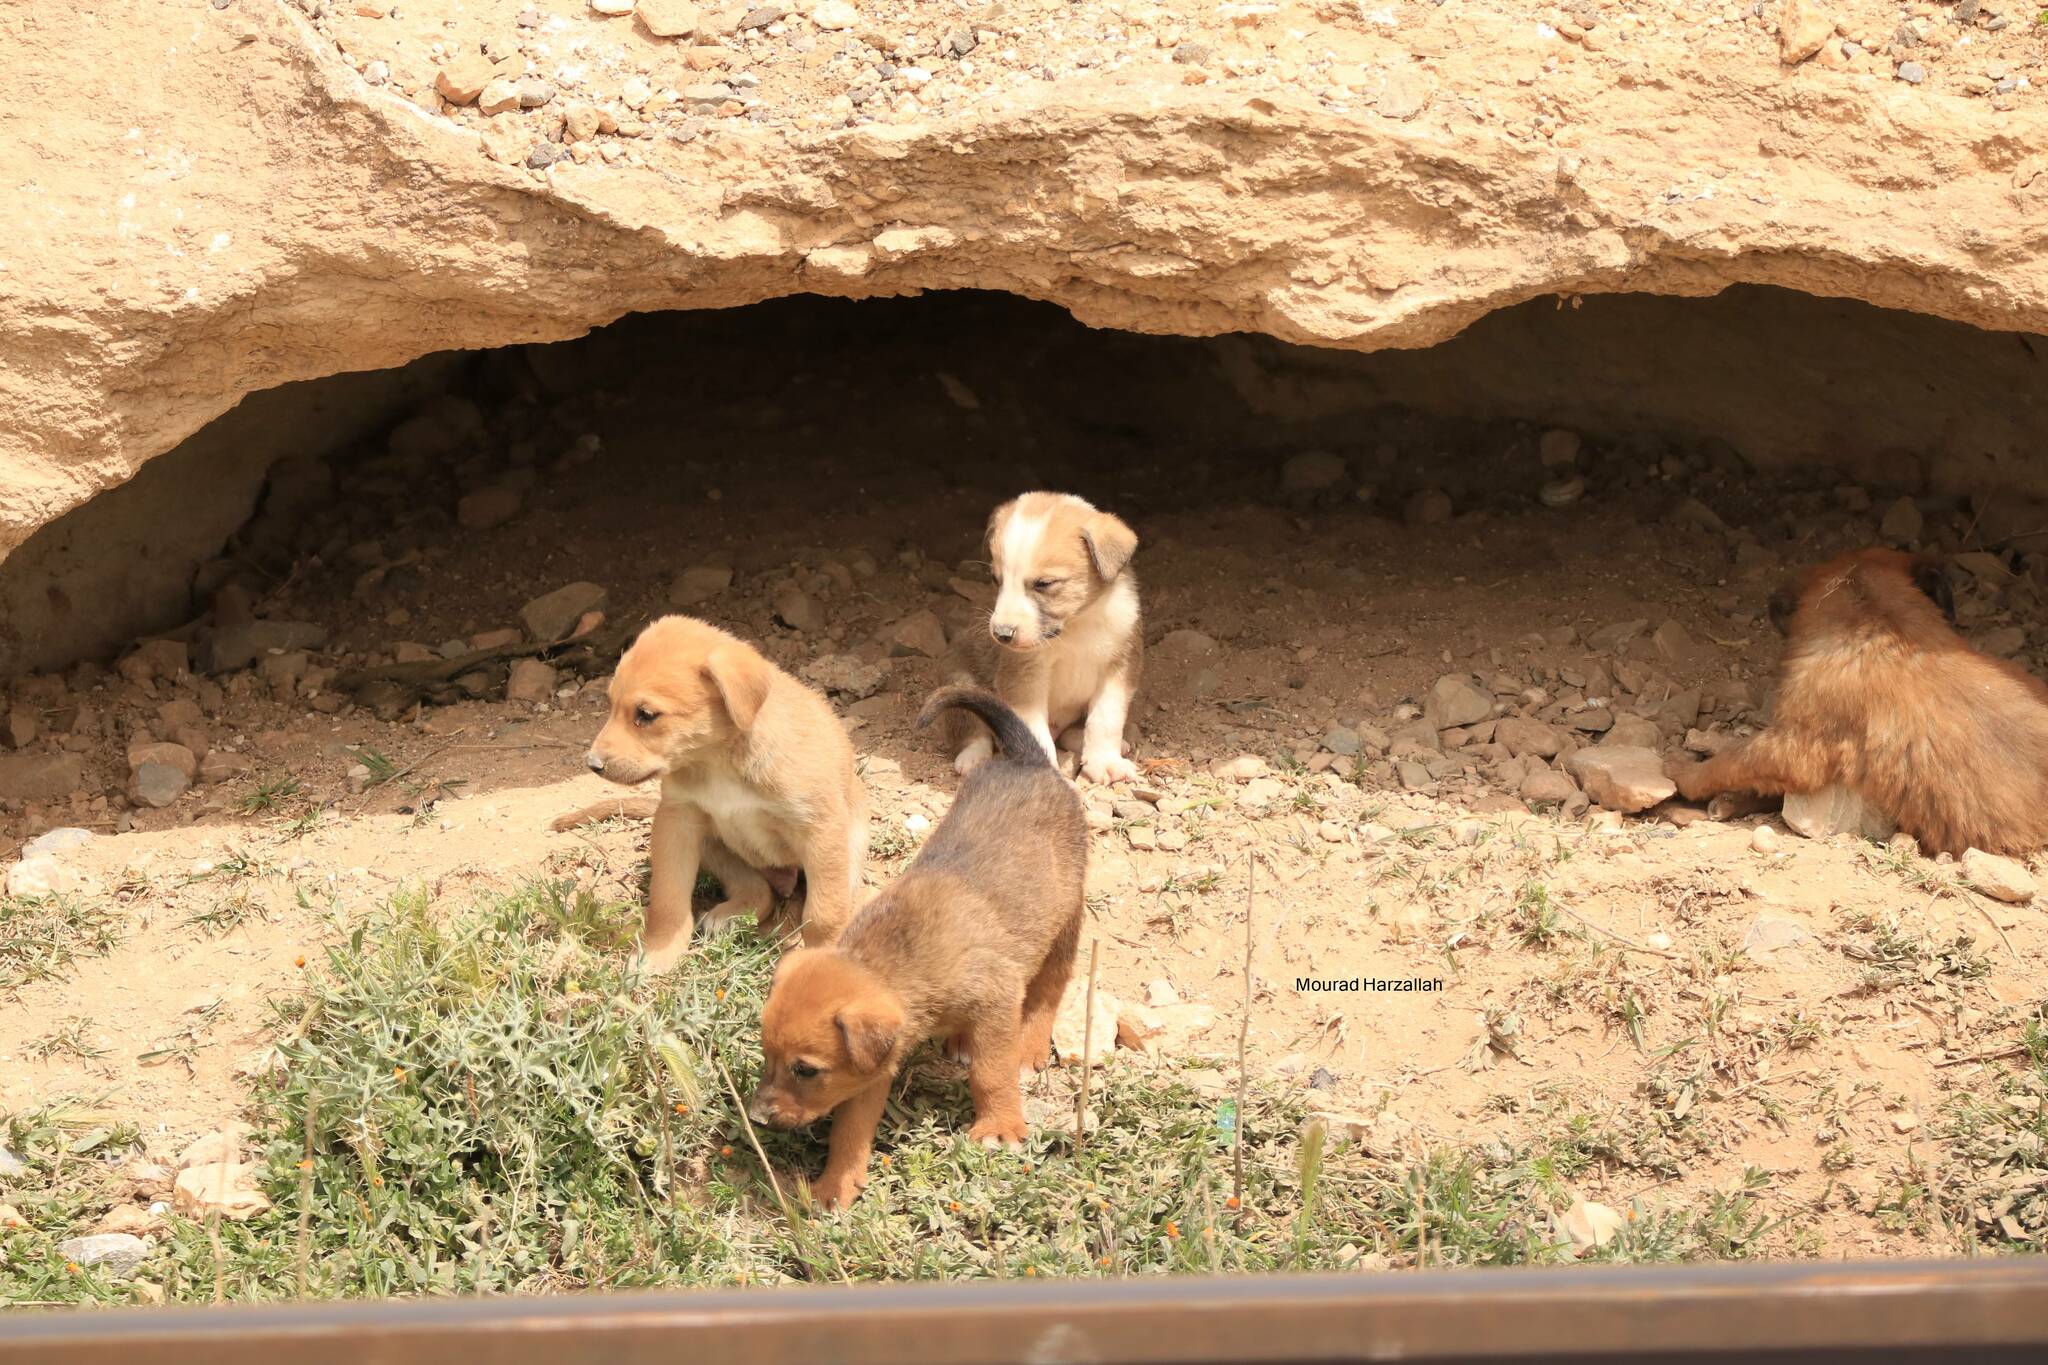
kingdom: Animalia
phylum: Chordata
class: Mammalia
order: Carnivora
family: Canidae
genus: Canis
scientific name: Canis lupus
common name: Gray wolf
